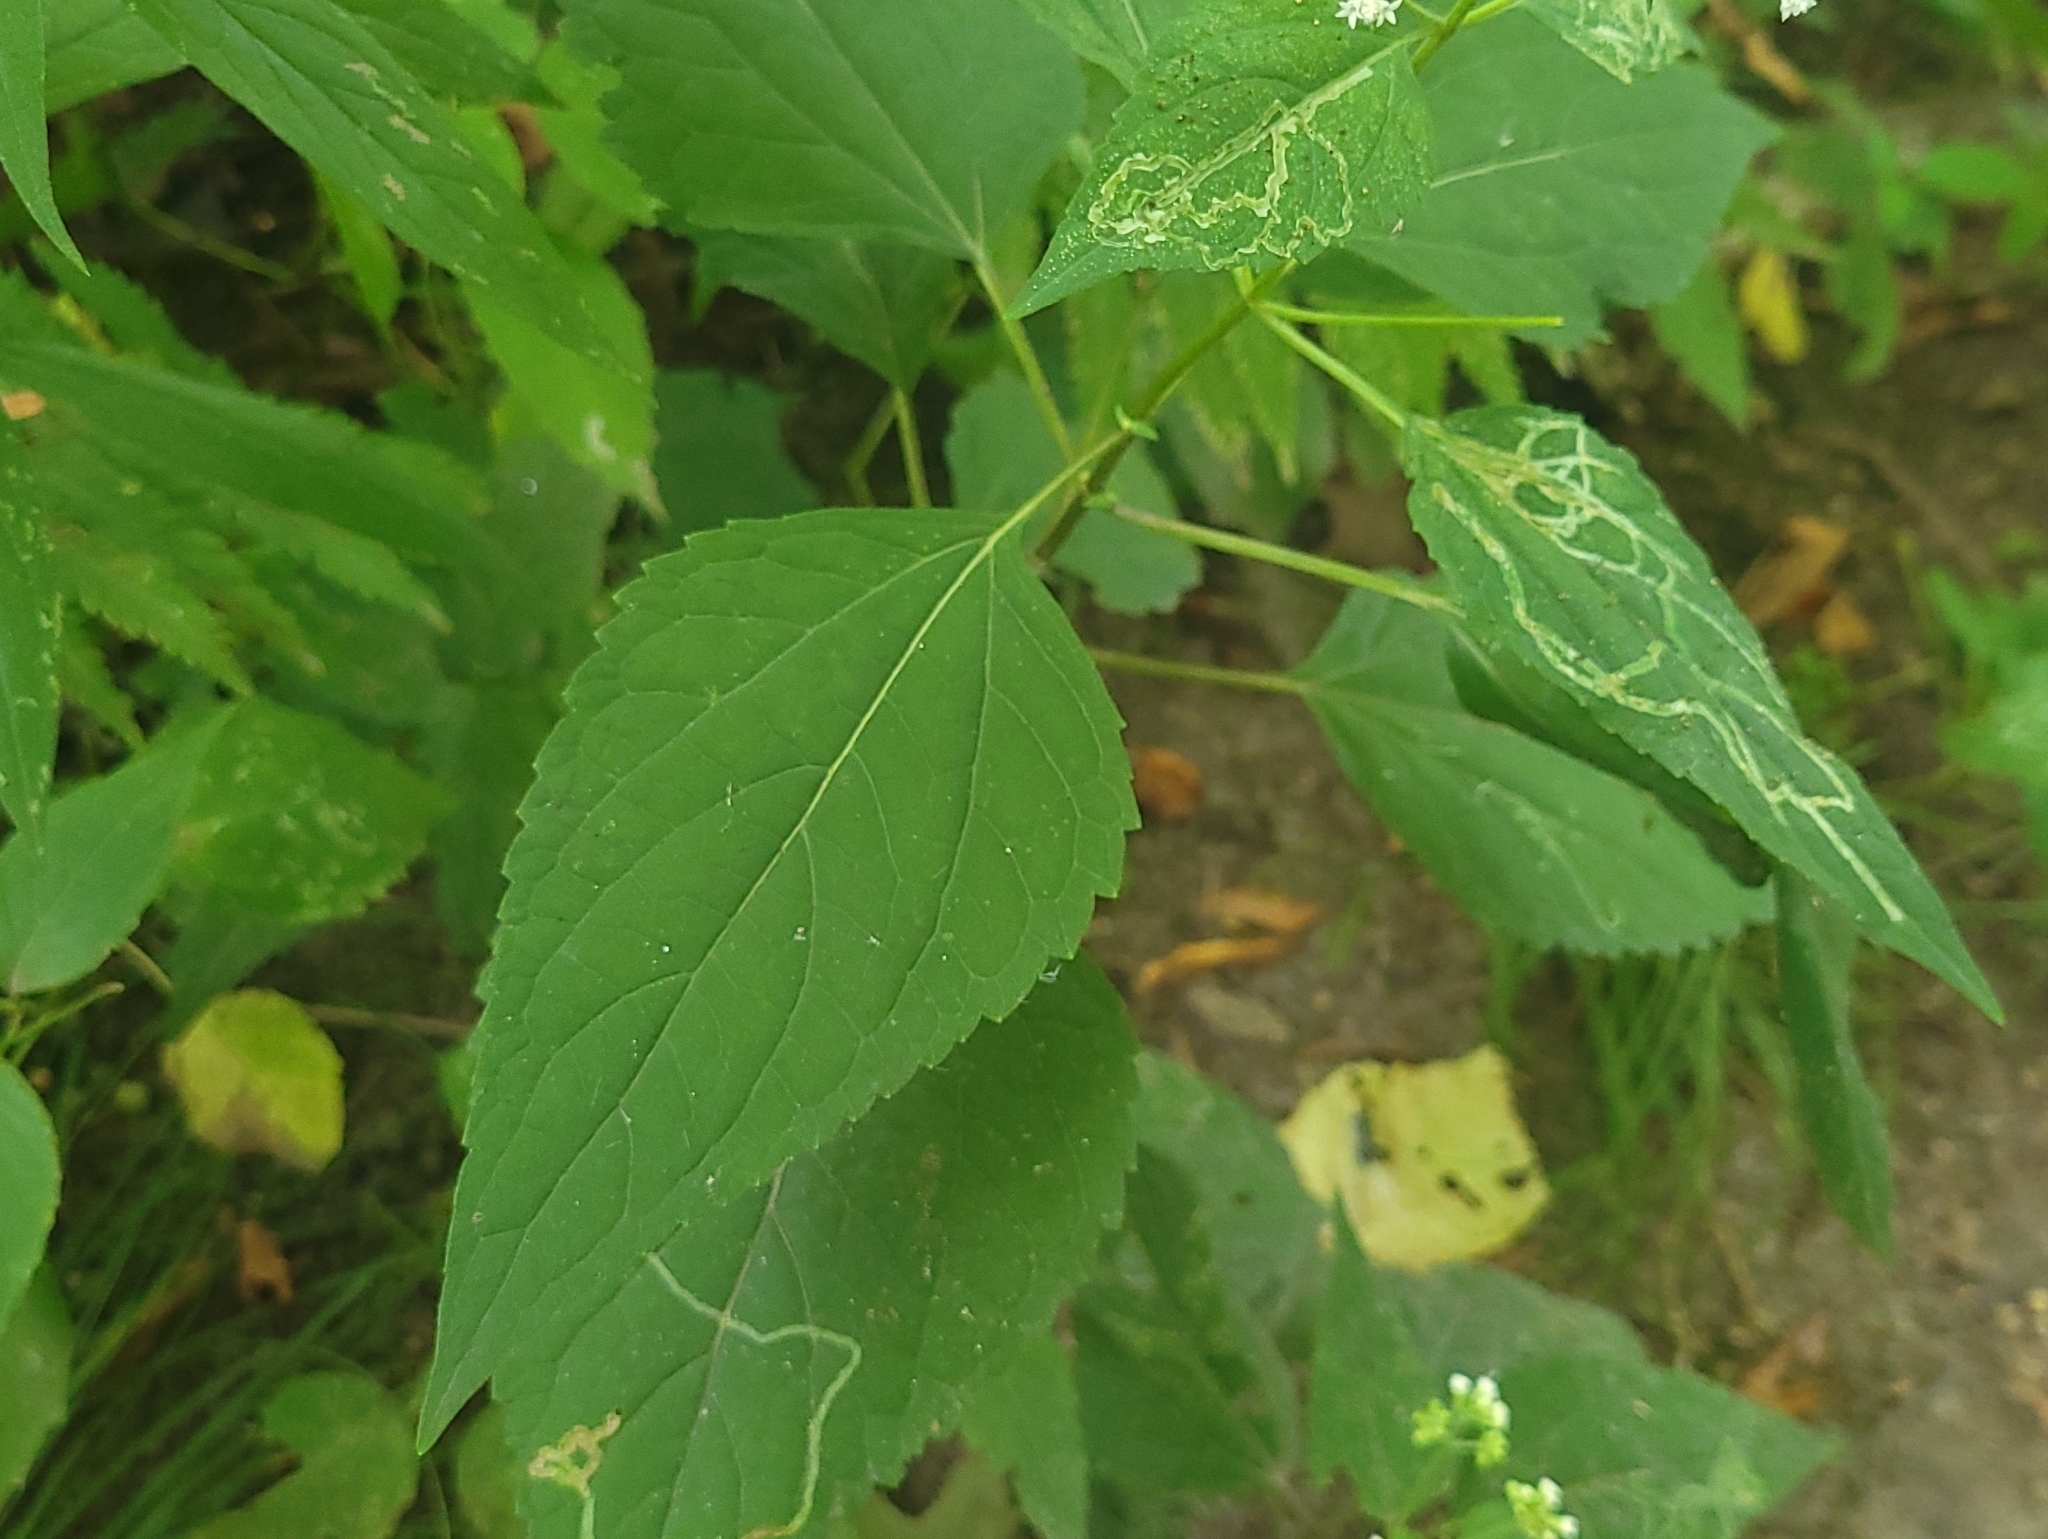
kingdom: Plantae
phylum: Tracheophyta
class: Magnoliopsida
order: Asterales
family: Asteraceae
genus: Ageratina
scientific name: Ageratina altissima
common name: White snakeroot
